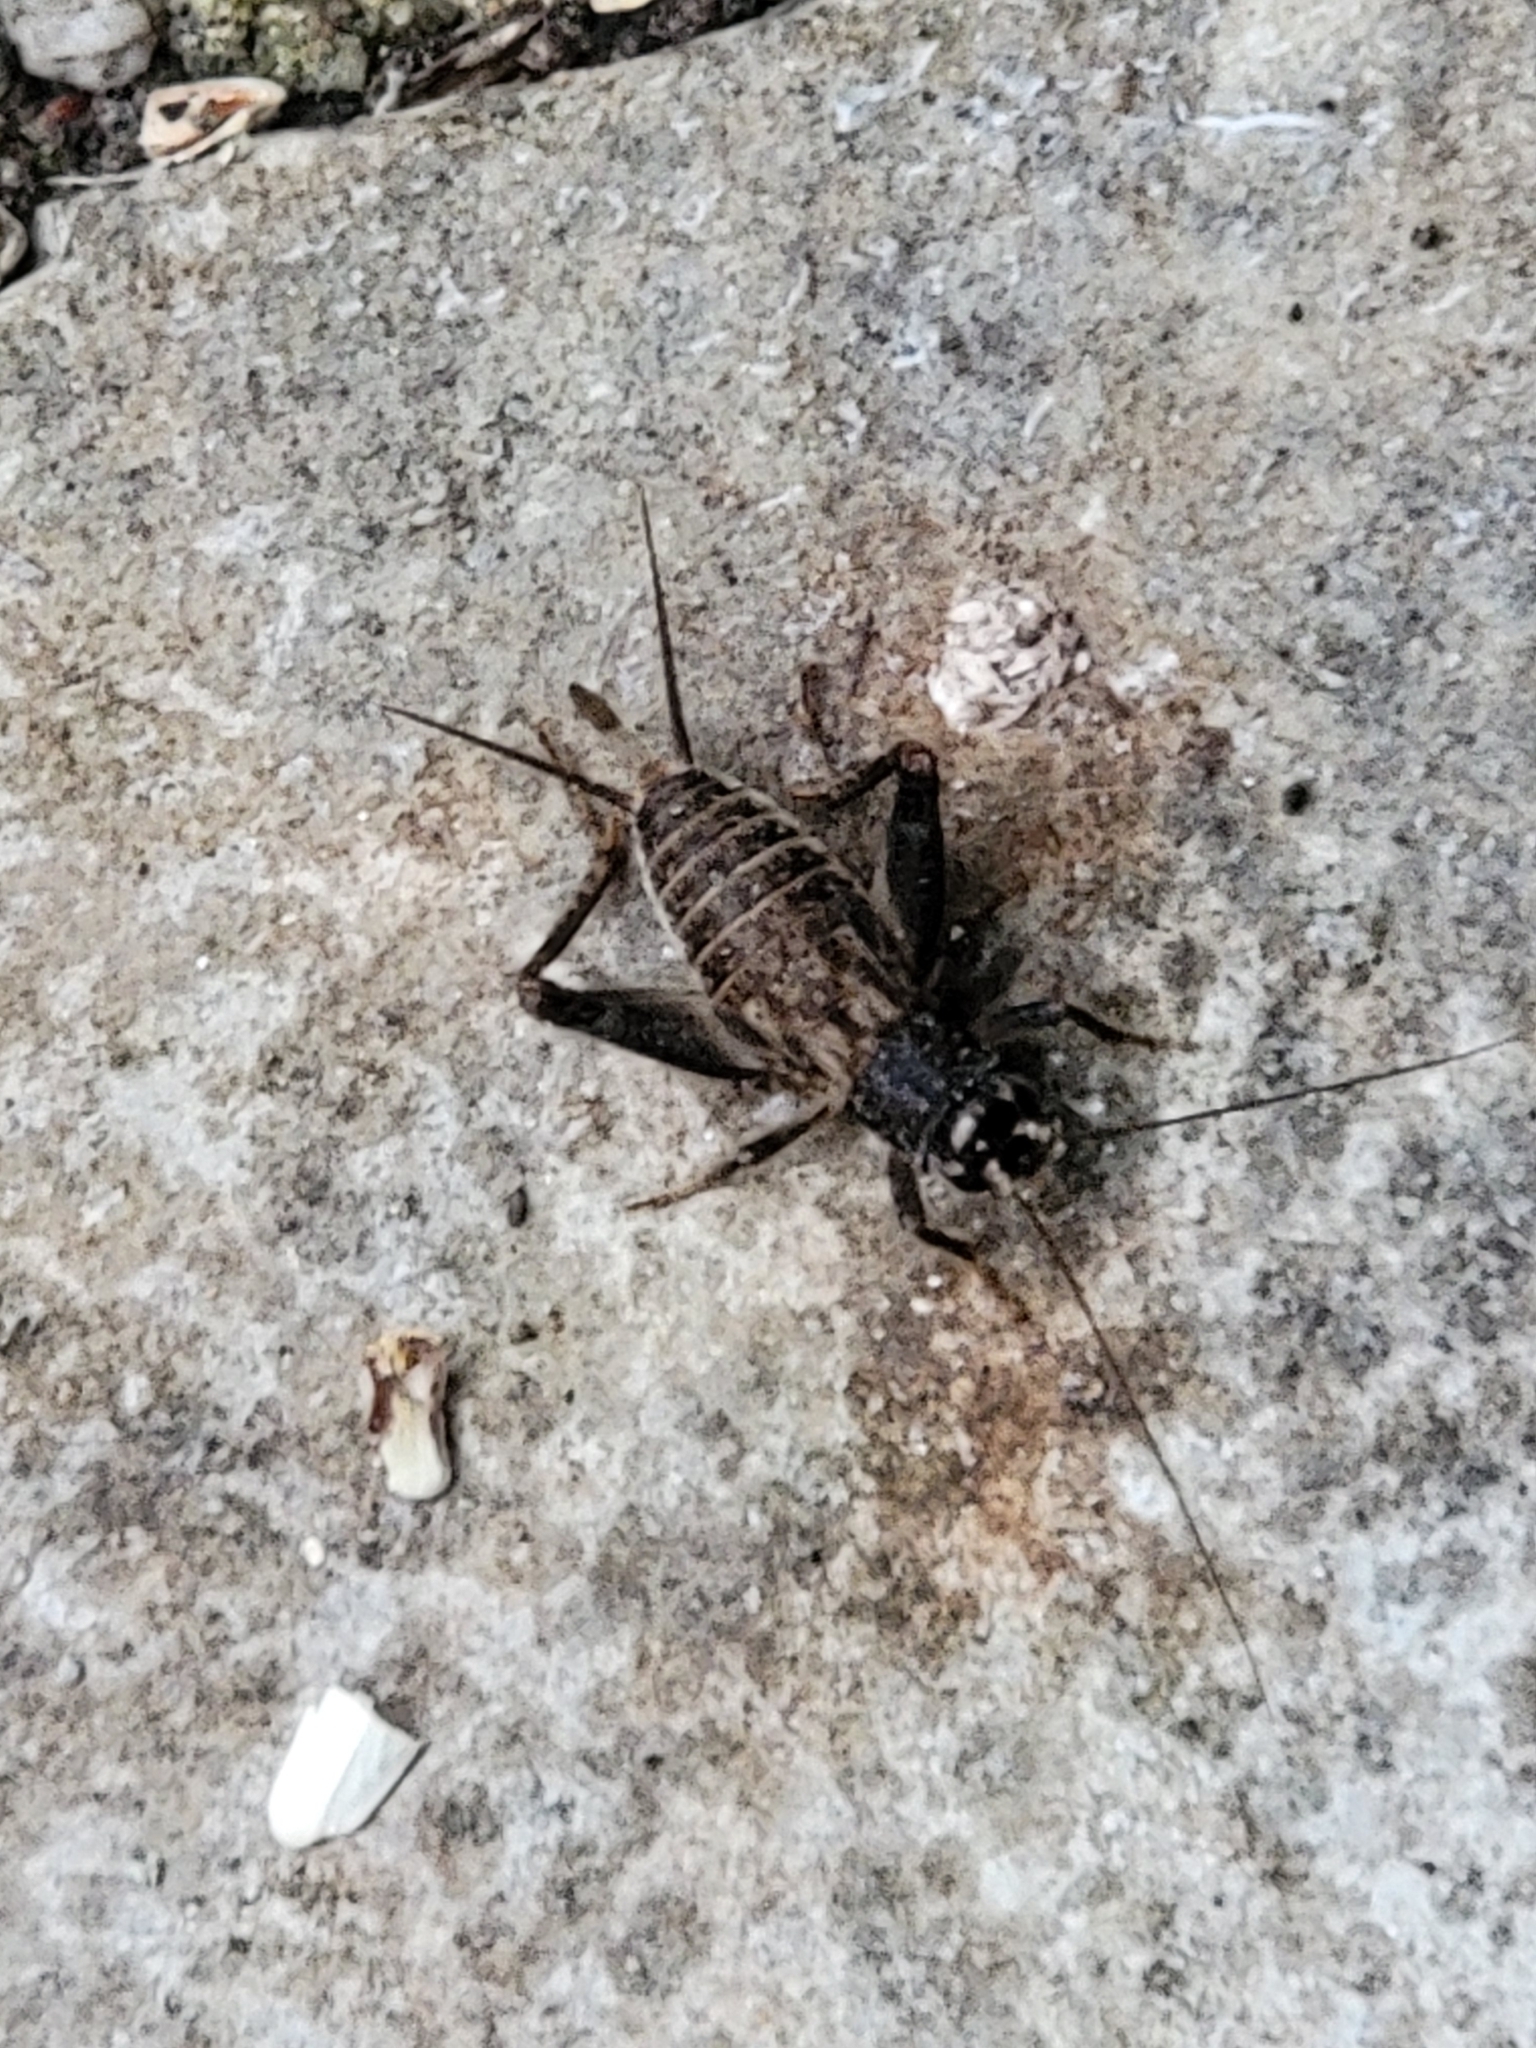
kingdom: Animalia
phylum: Arthropoda
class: Insecta
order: Orthoptera
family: Gryllidae
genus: Velarifictorus
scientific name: Velarifictorus micado
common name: Japanese burrowing cricket
